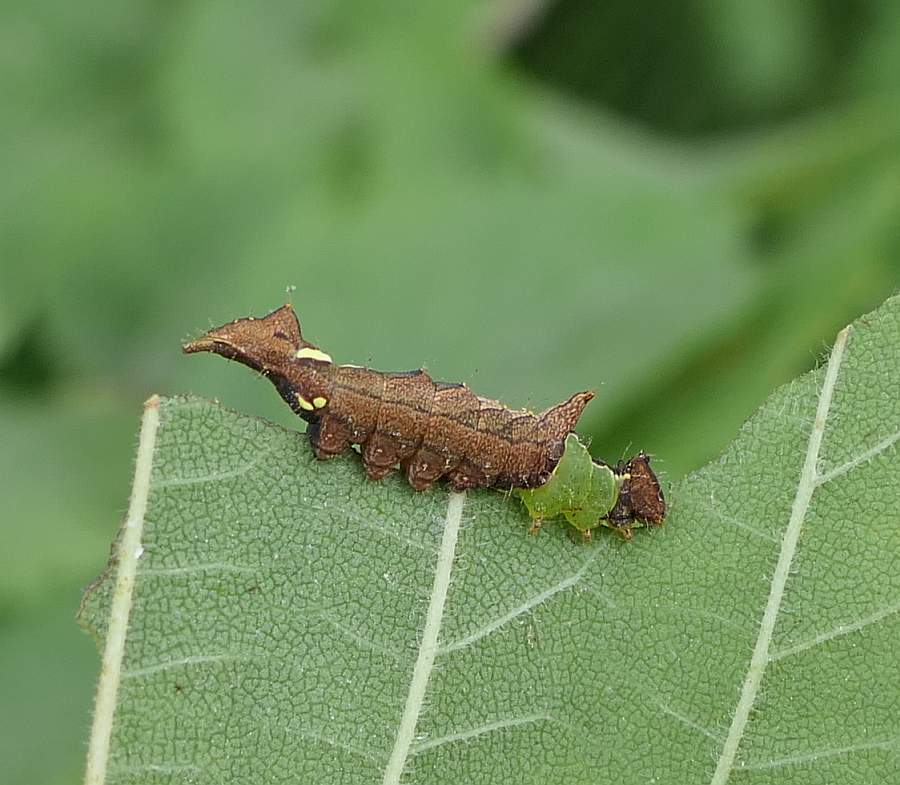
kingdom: Animalia
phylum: Arthropoda
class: Insecta
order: Lepidoptera
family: Notodontidae
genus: Schizura
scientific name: Schizura
